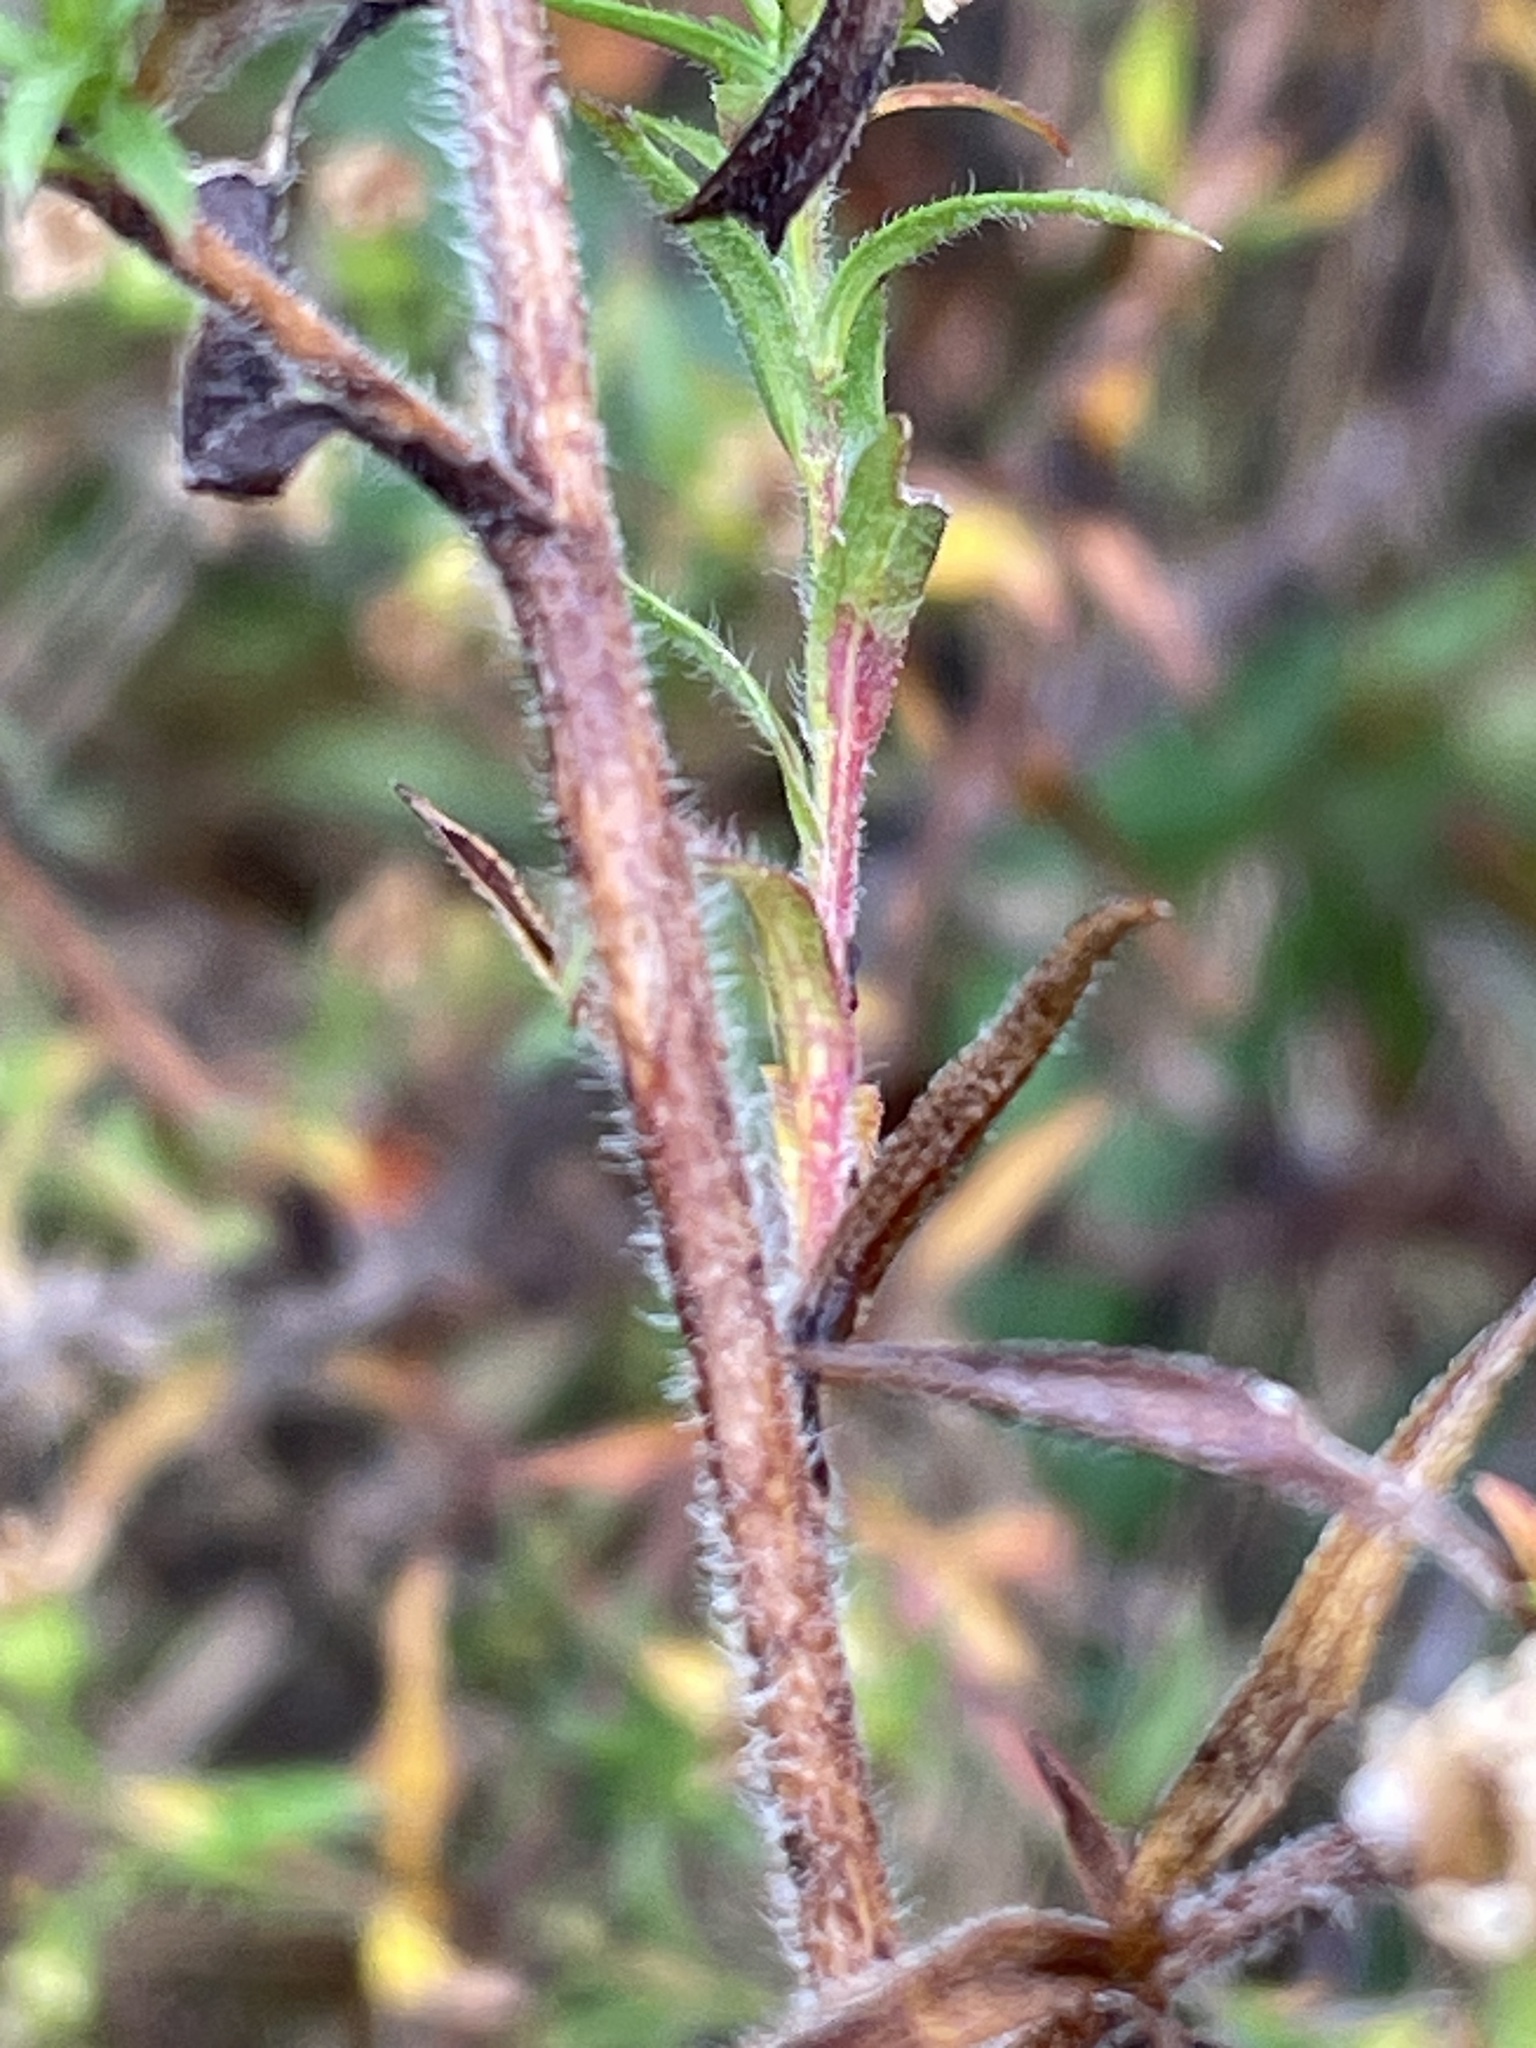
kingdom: Plantae
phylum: Tracheophyta
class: Magnoliopsida
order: Asterales
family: Asteraceae
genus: Symphyotrichum
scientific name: Symphyotrichum pilosum
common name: Awl aster
